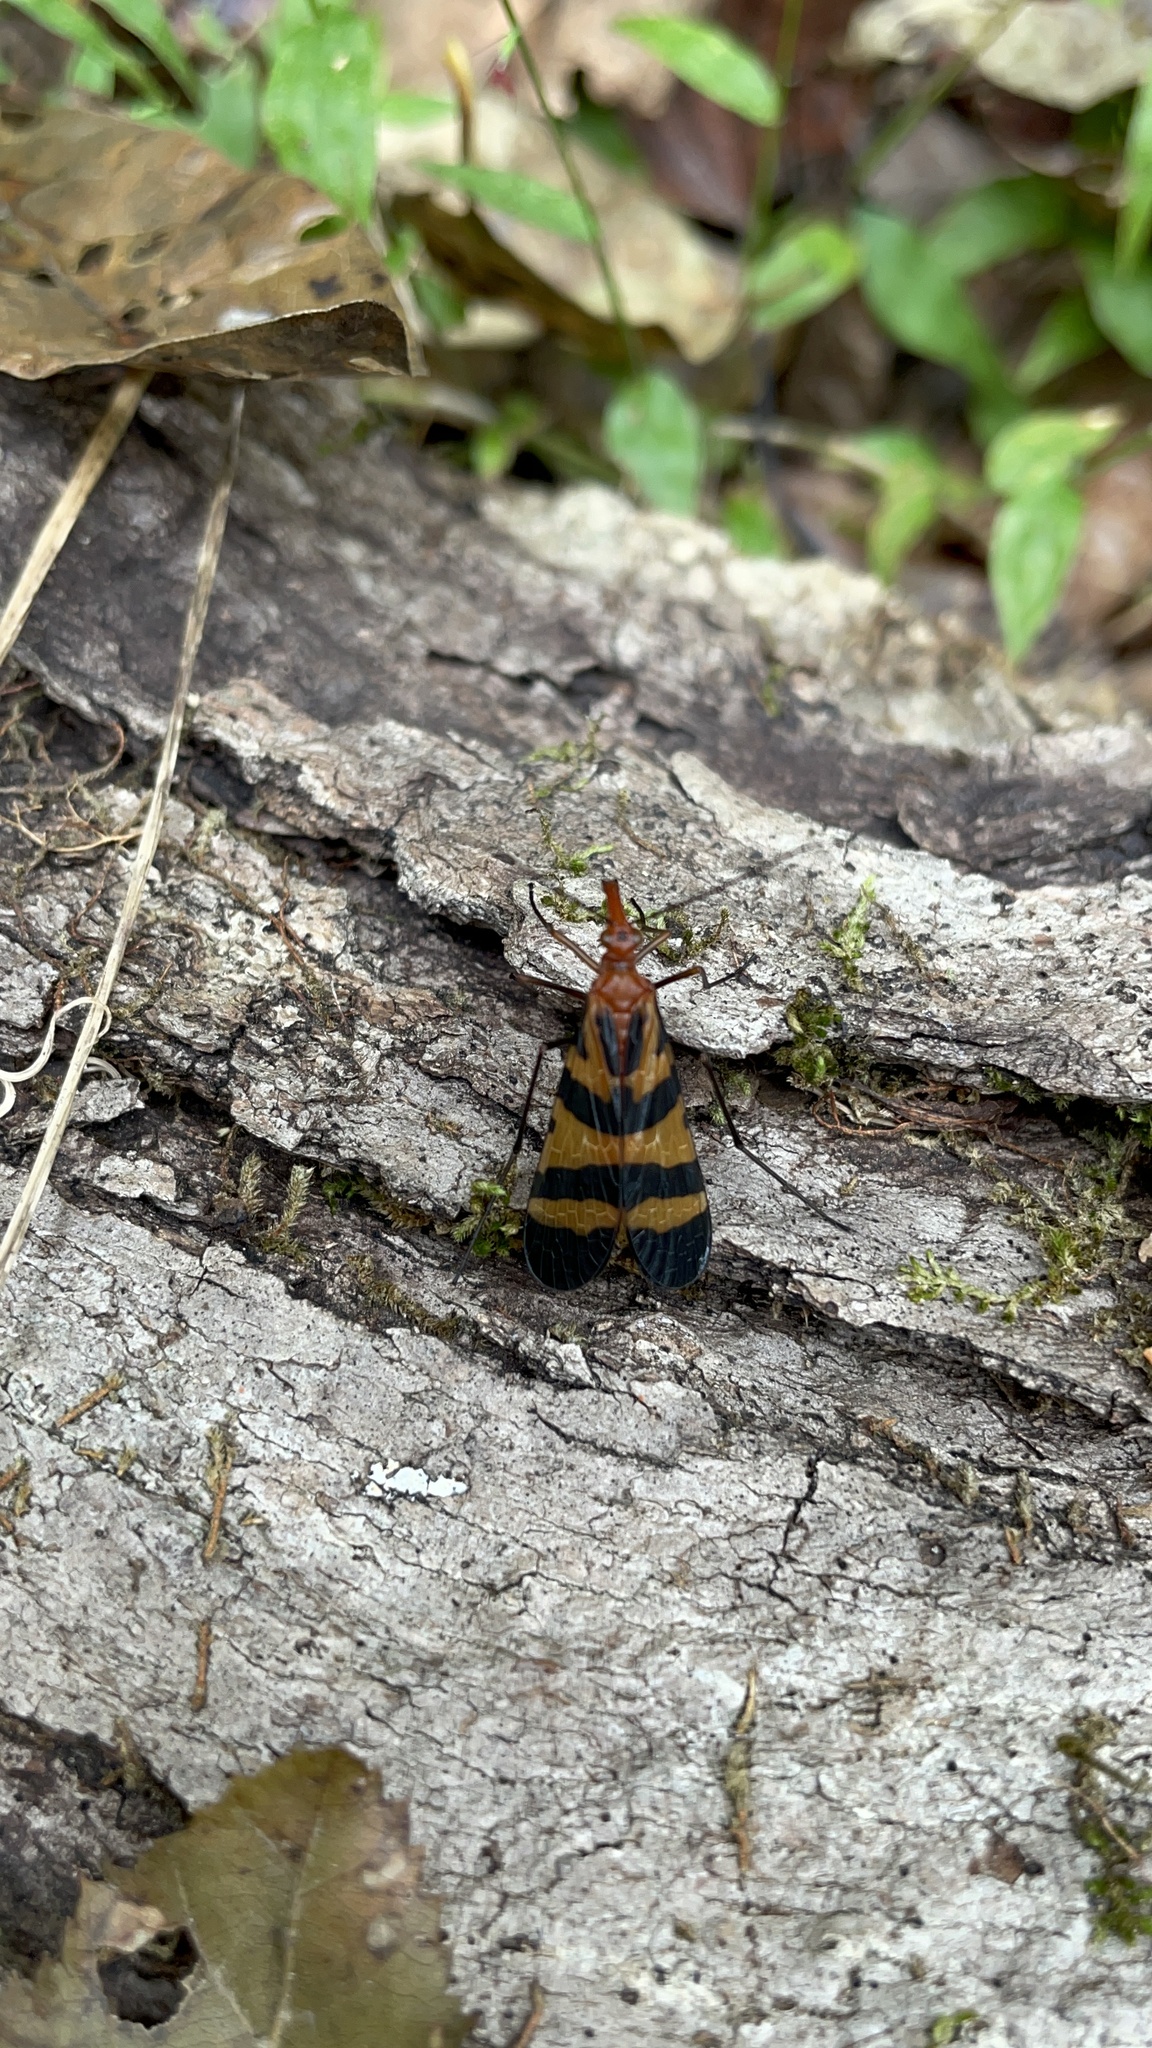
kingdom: Animalia
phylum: Arthropoda
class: Insecta
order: Mecoptera
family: Panorpidae
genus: Panorpa
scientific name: Panorpa nuptialis
